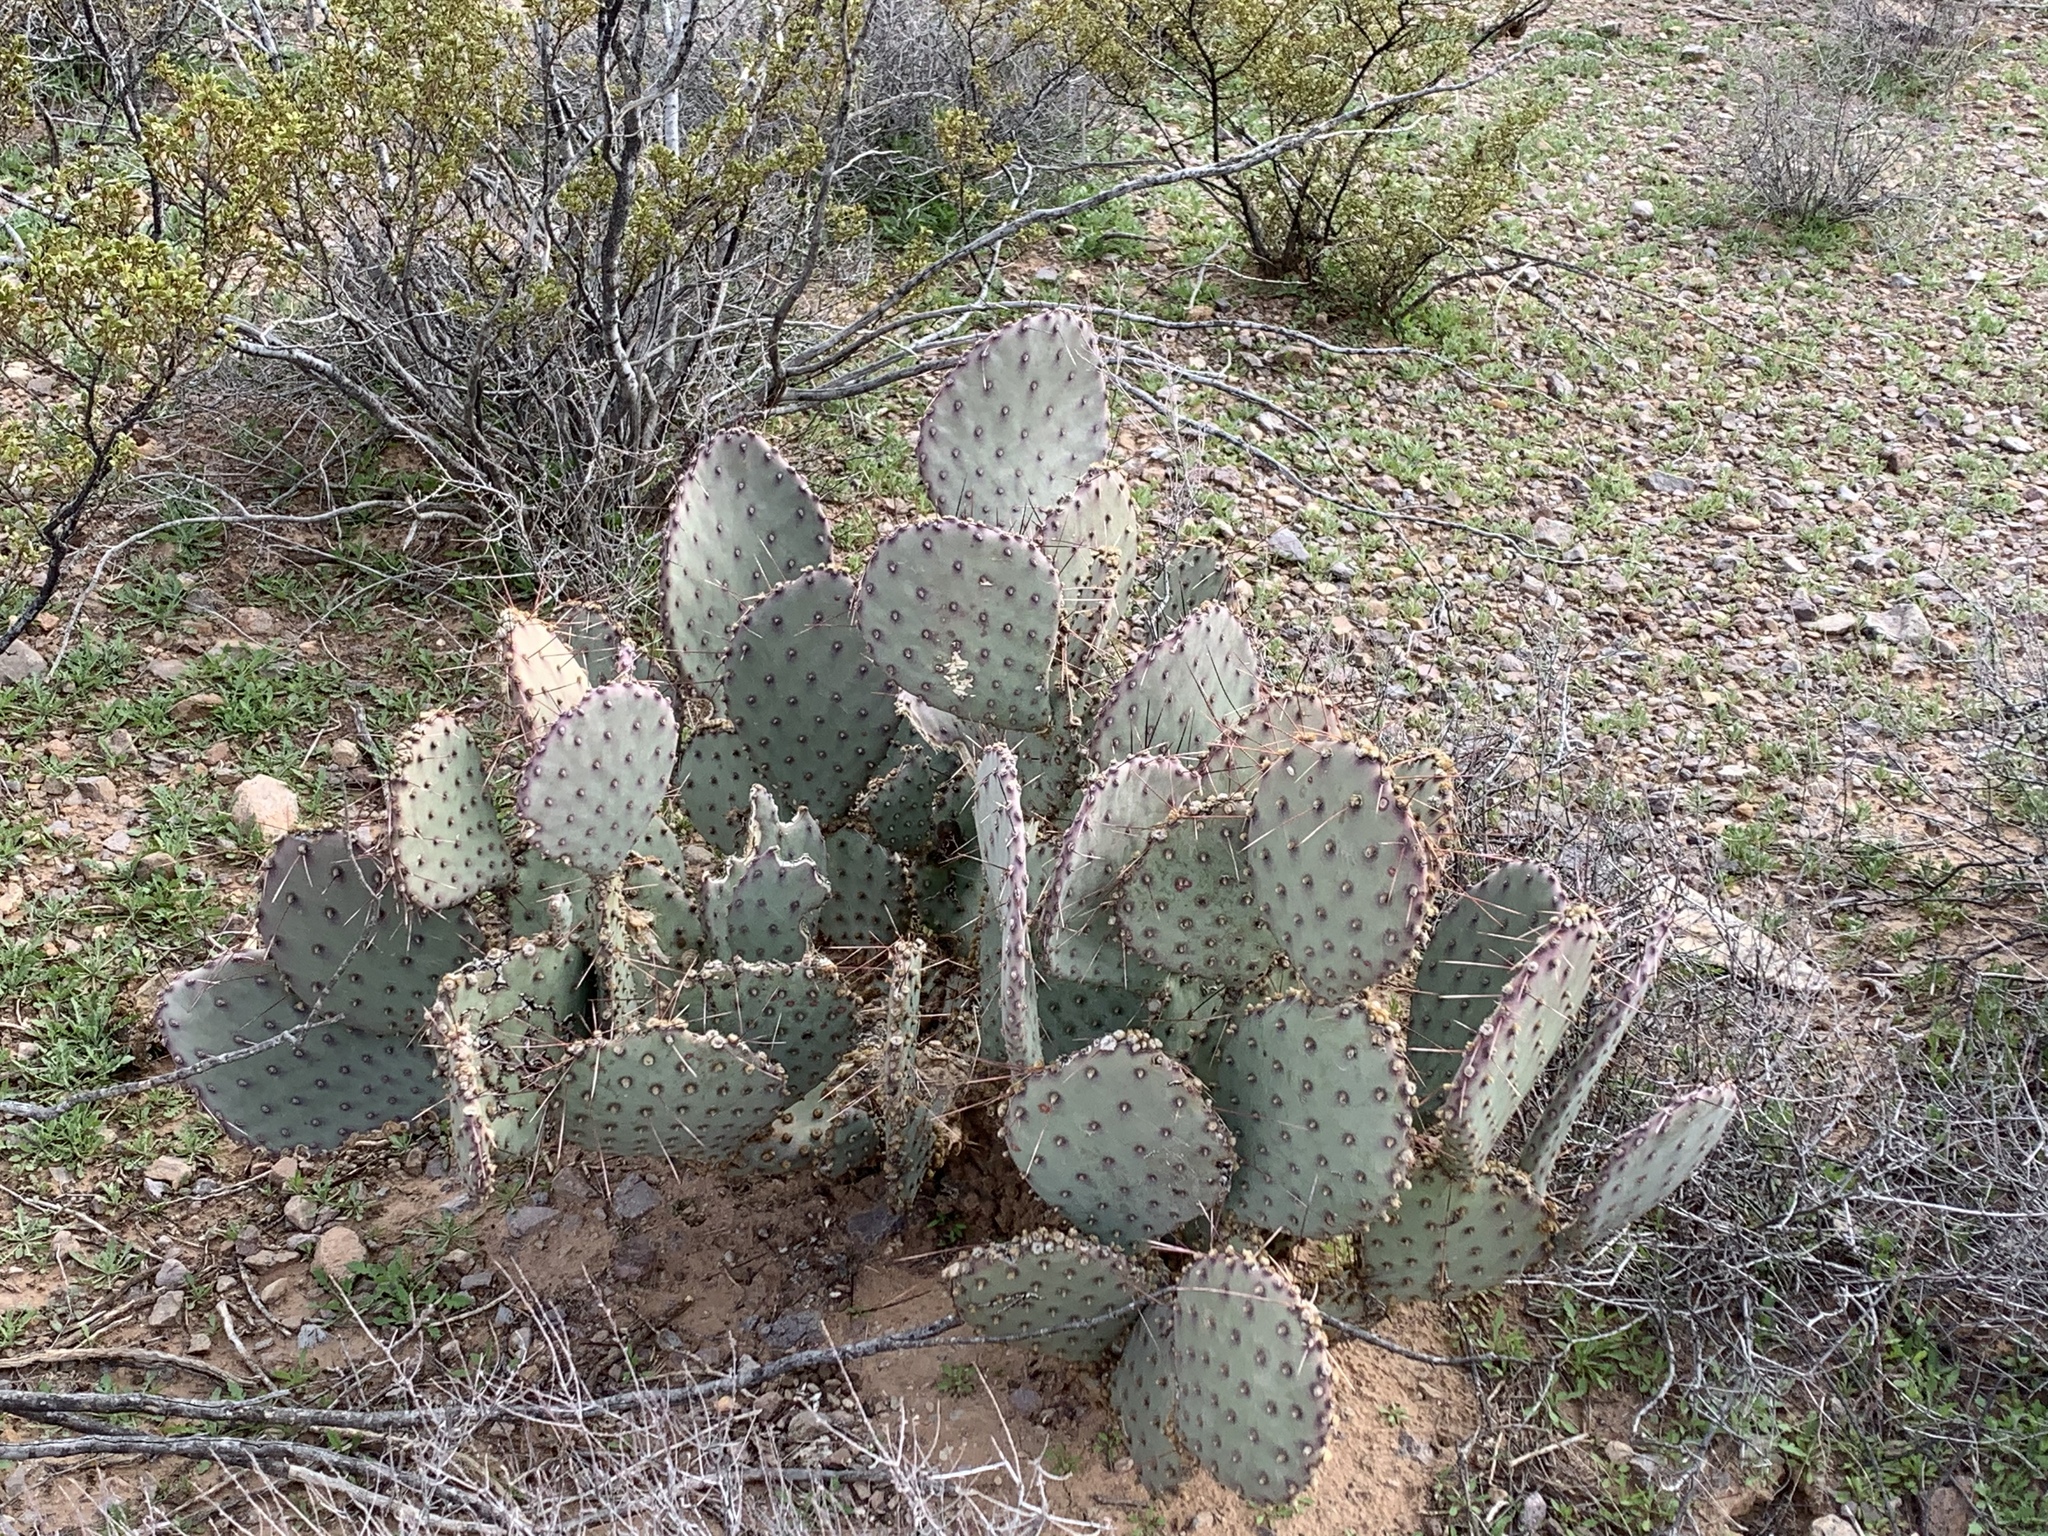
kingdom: Plantae
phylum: Tracheophyta
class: Magnoliopsida
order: Caryophyllales
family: Cactaceae
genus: Opuntia
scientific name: Opuntia macrocentra
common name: Purple prickly-pear
